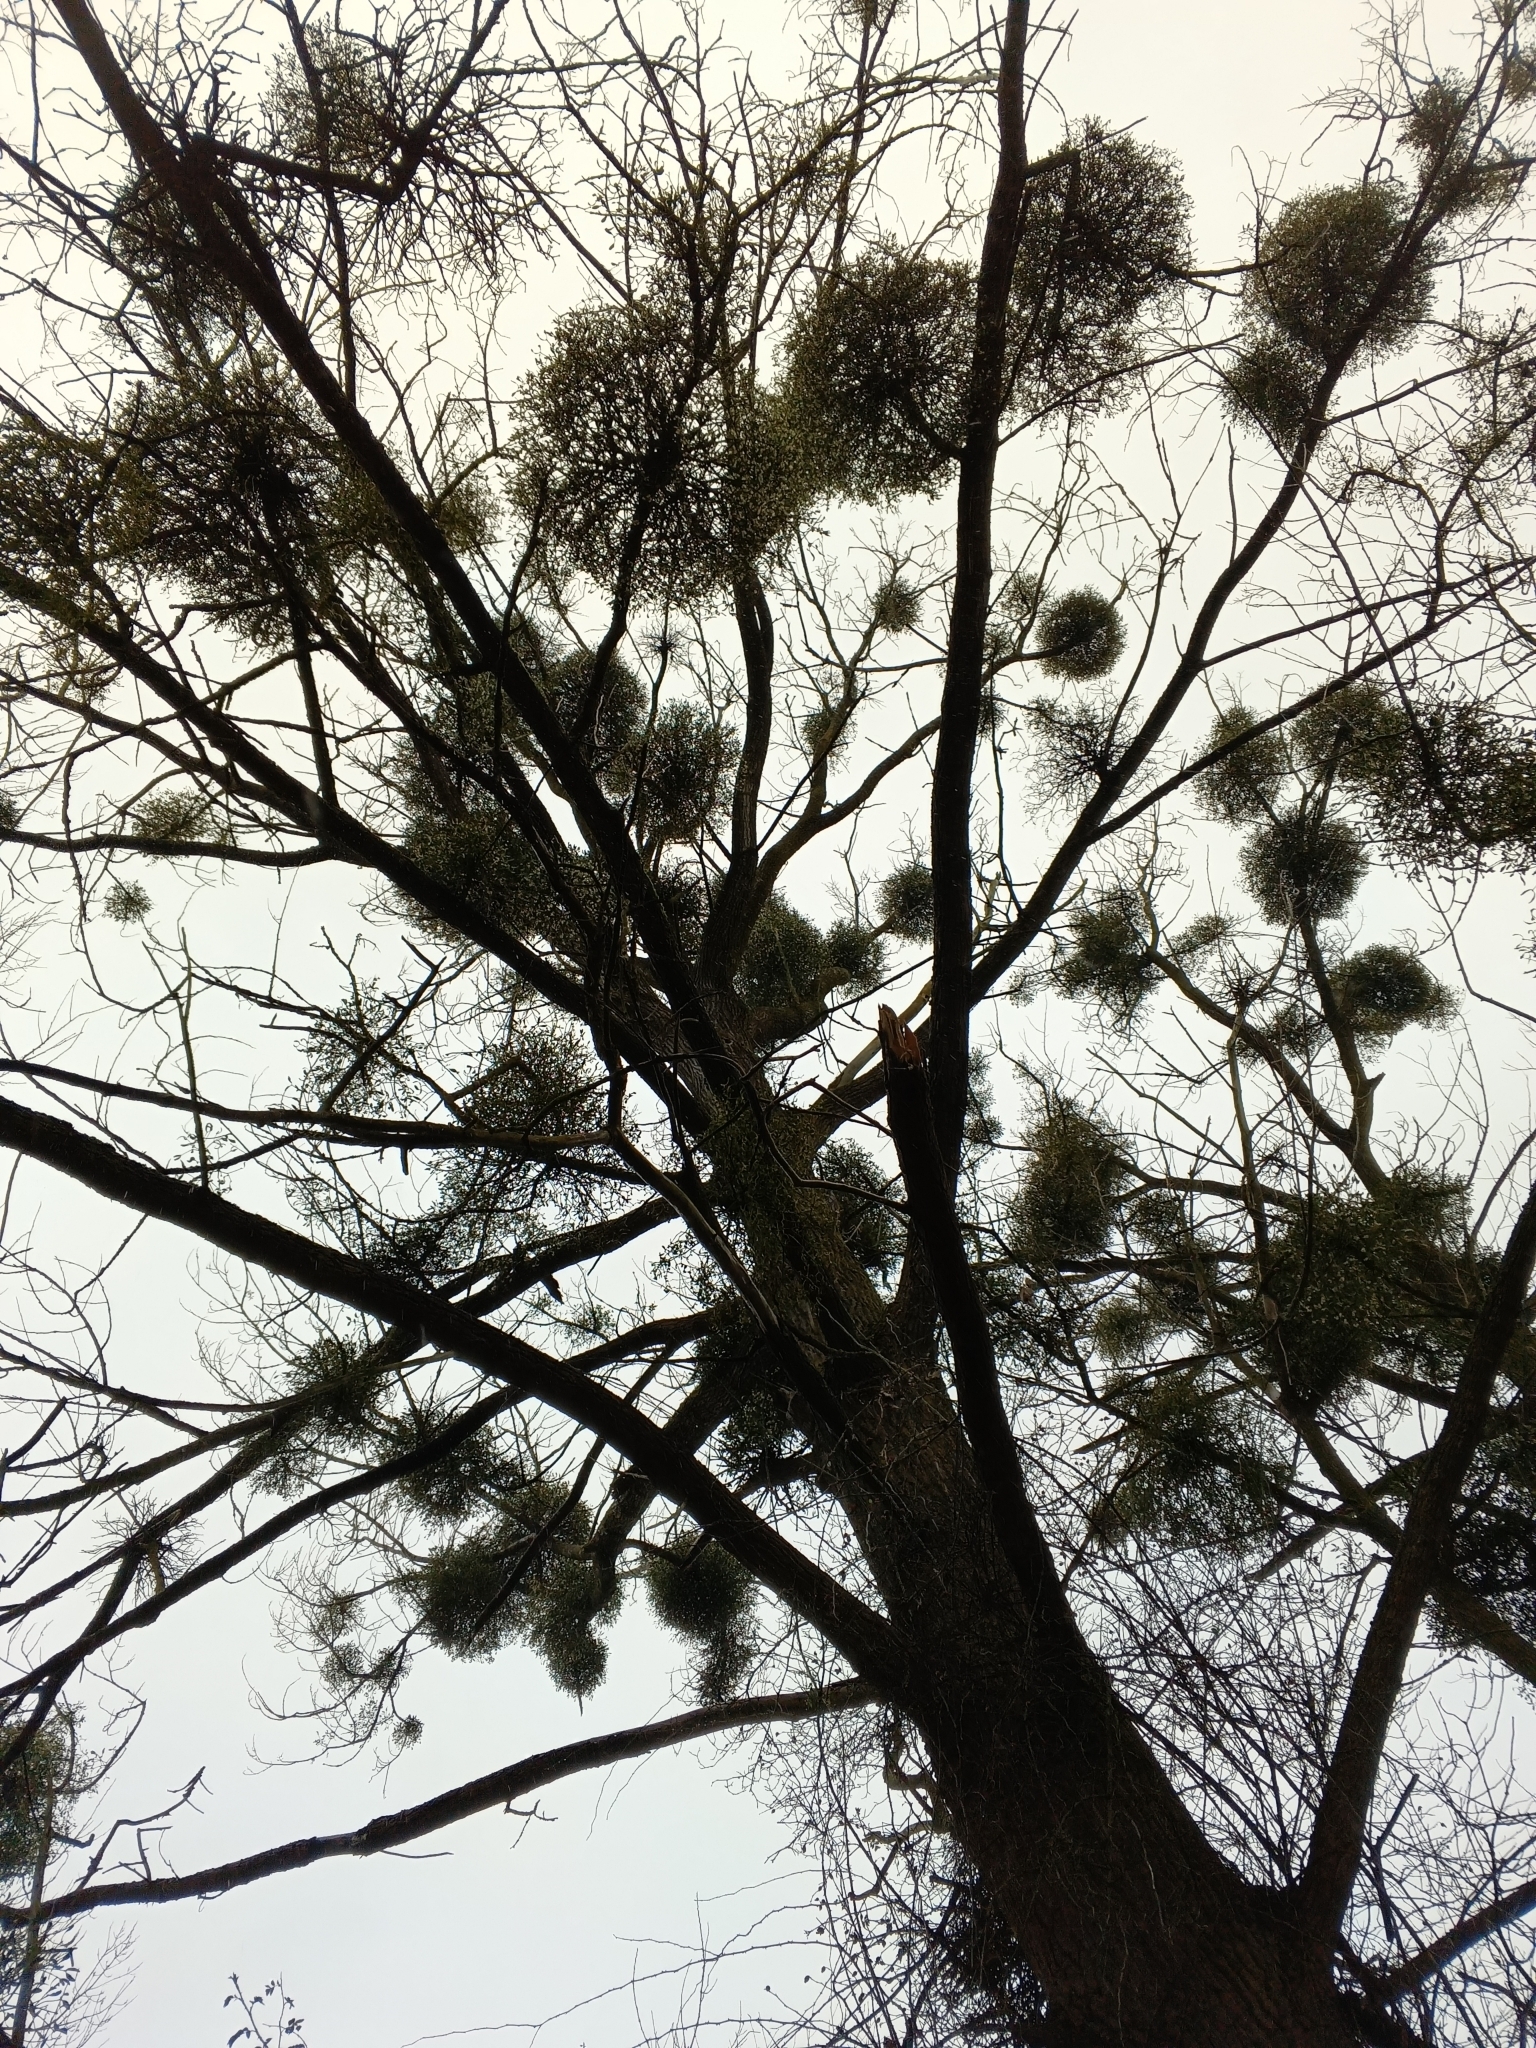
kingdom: Plantae
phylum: Tracheophyta
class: Magnoliopsida
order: Santalales
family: Viscaceae
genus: Viscum
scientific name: Viscum album
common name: Mistletoe
